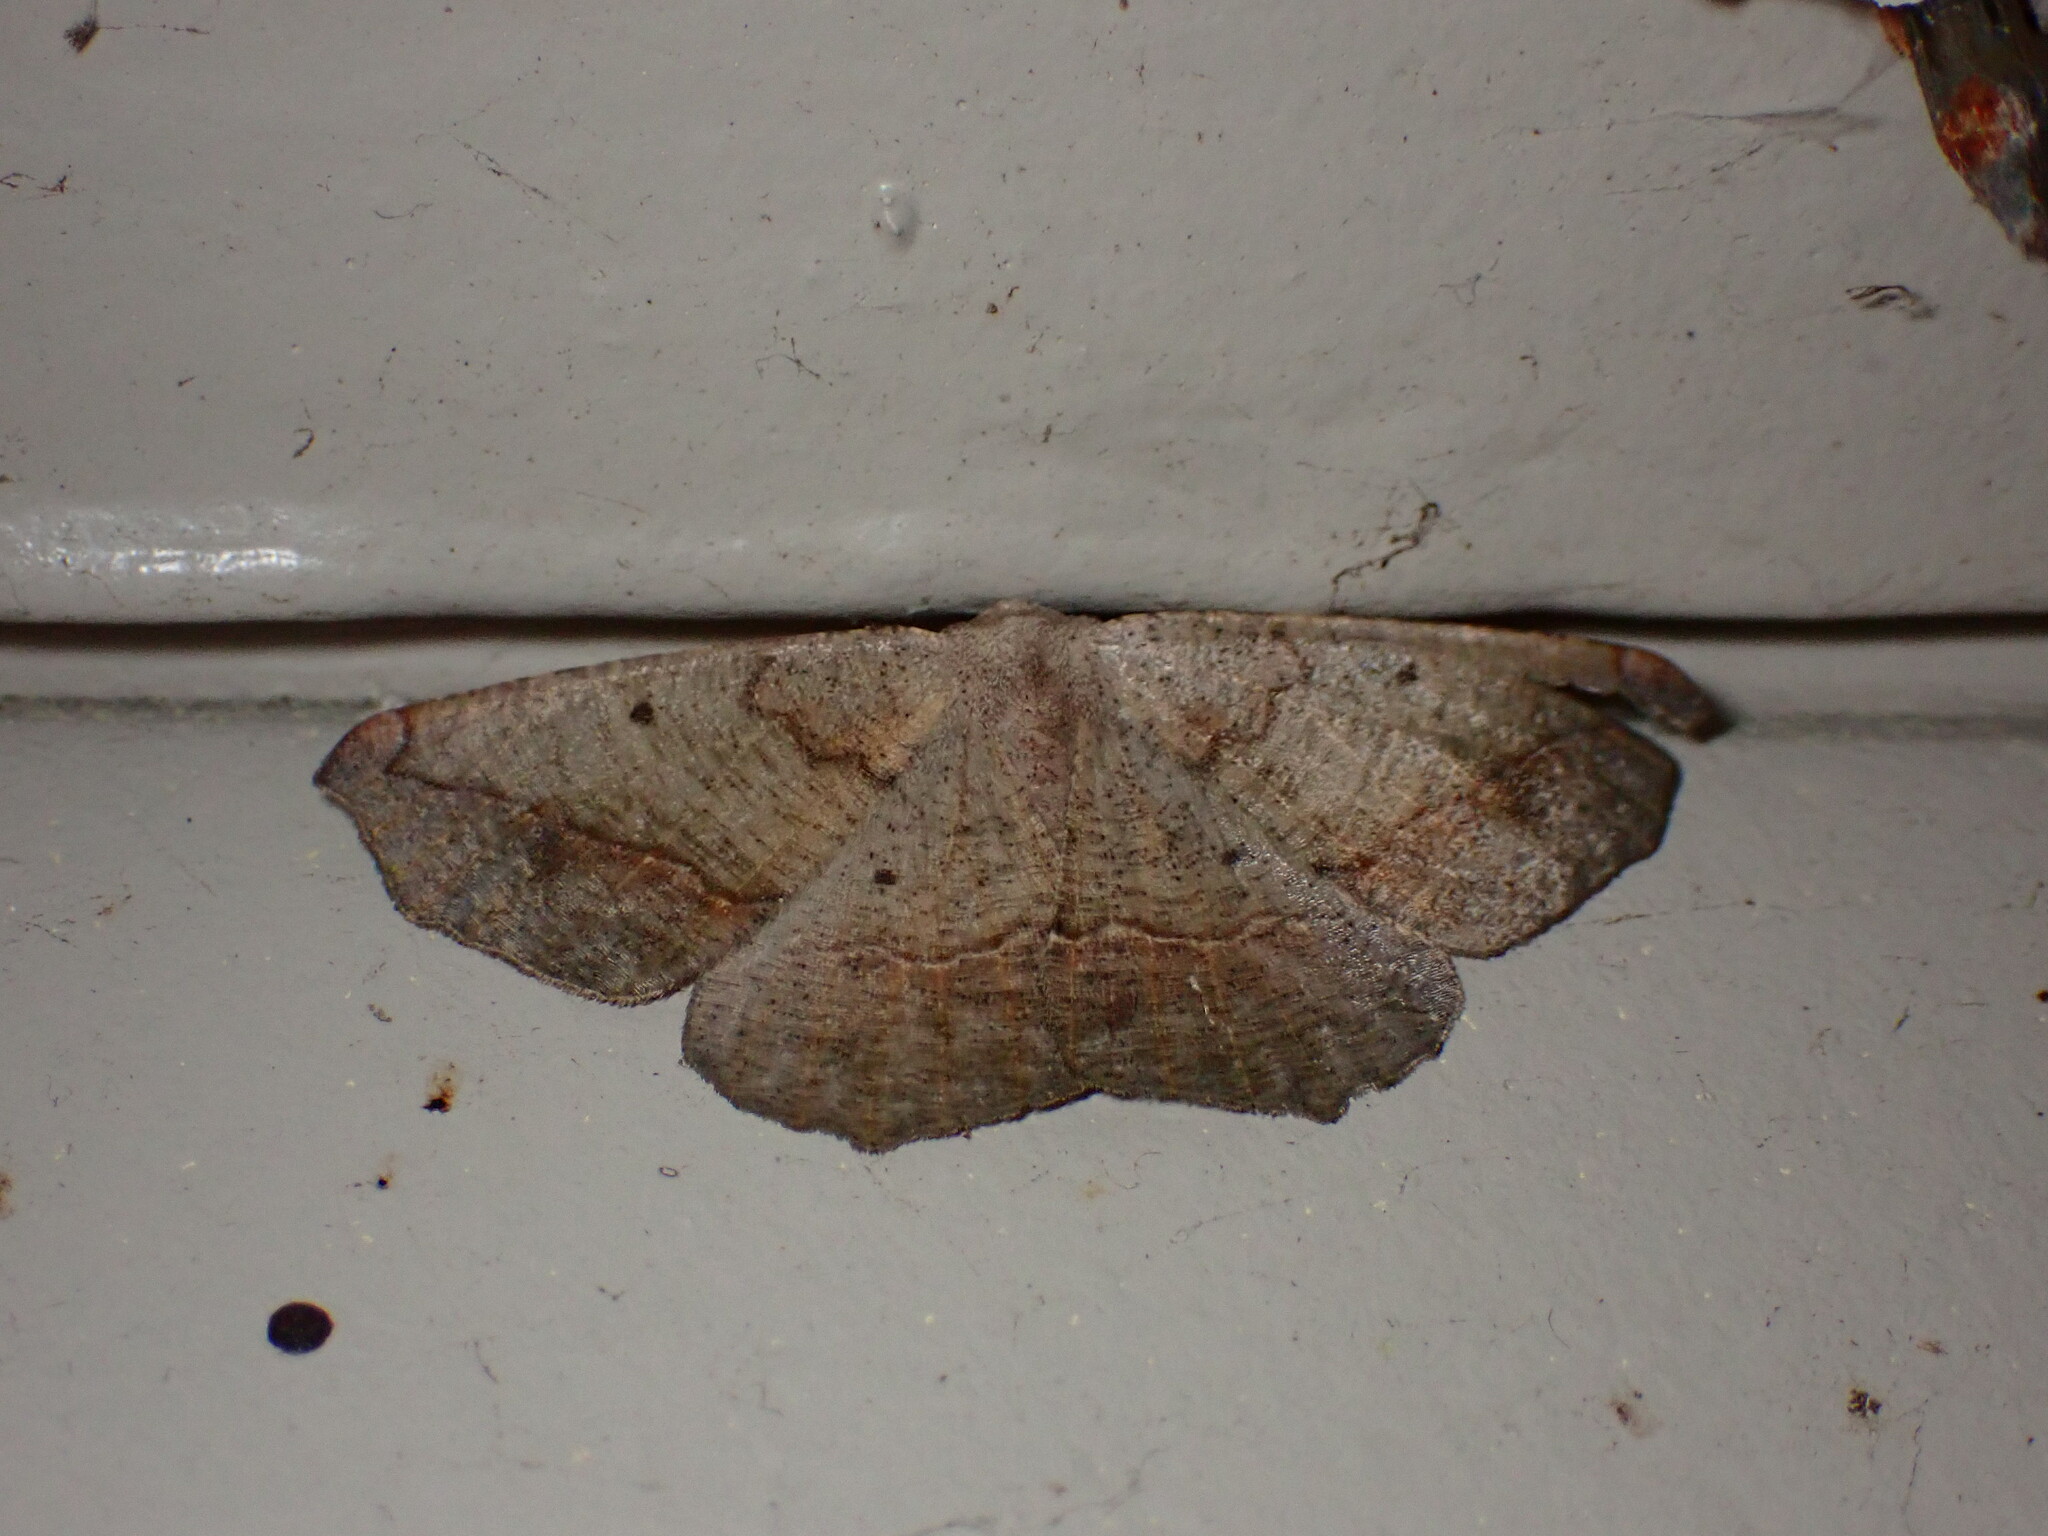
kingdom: Animalia
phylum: Arthropoda
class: Insecta
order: Lepidoptera
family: Geometridae
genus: Prochoerodes
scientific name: Prochoerodes forficaria
